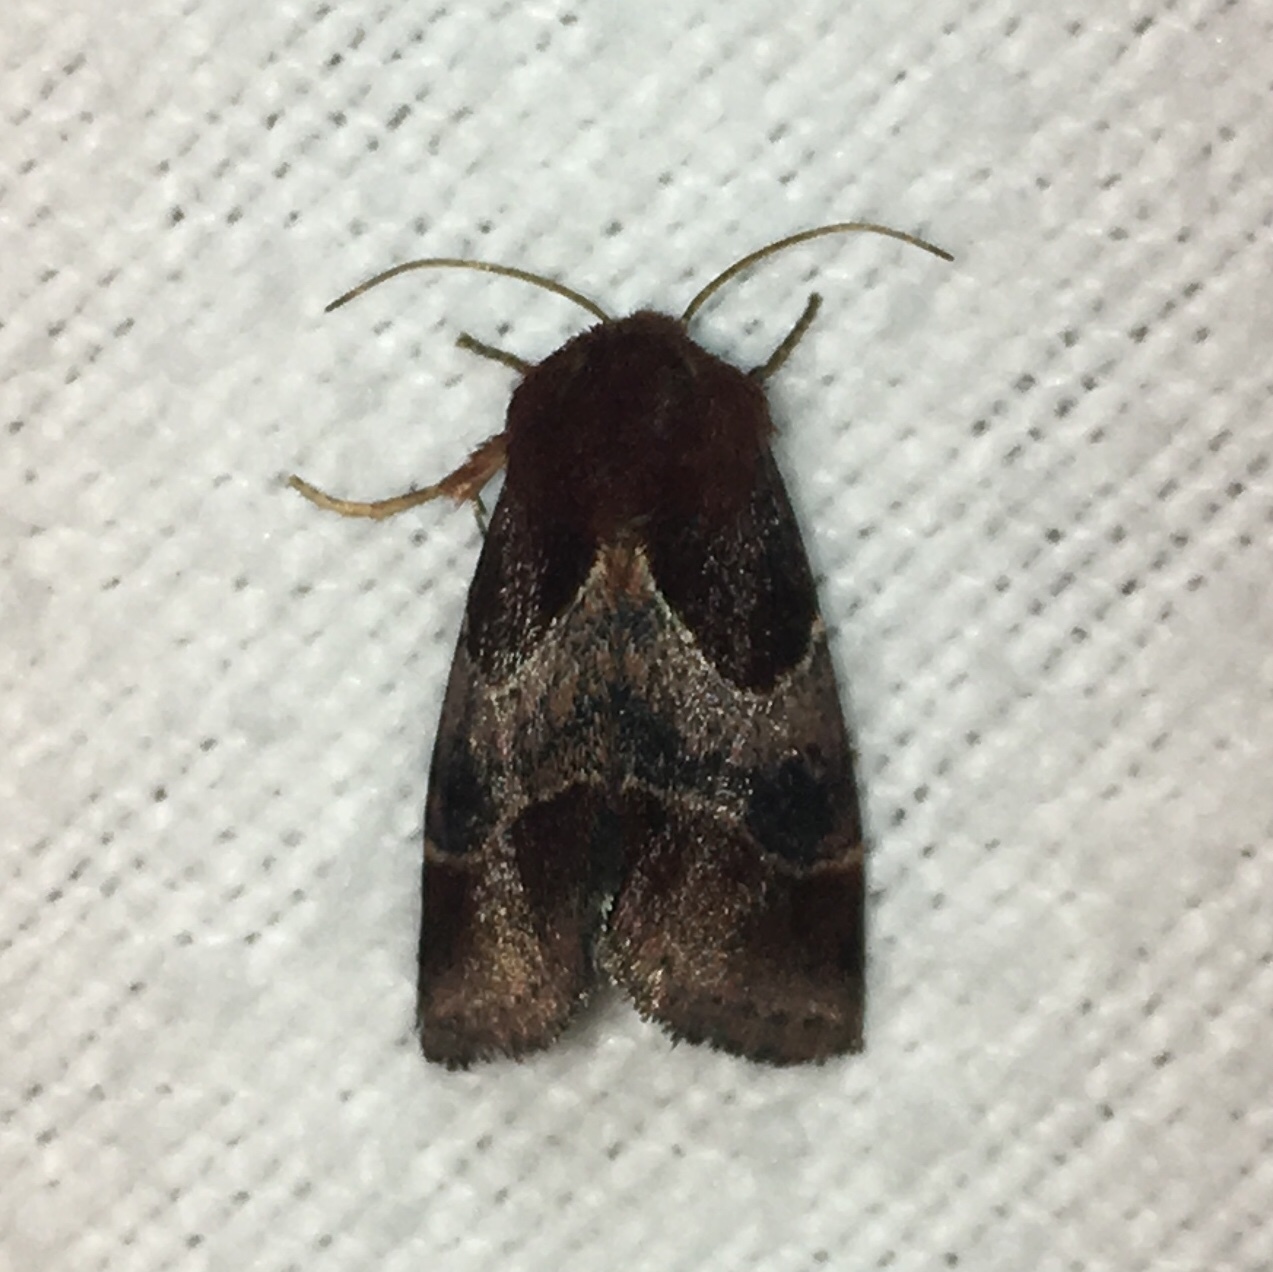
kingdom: Animalia
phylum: Arthropoda
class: Insecta
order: Lepidoptera
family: Noctuidae
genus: Schinia
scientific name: Schinia arcigera
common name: Arcigera flower moth
